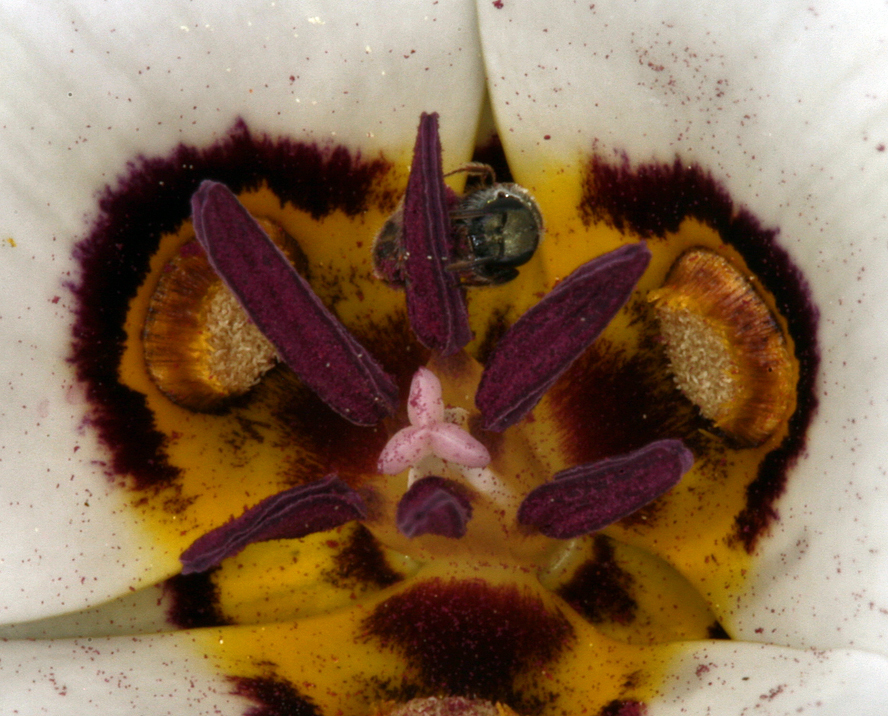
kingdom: Plantae
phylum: Tracheophyta
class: Liliopsida
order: Liliales
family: Liliaceae
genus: Calochortus
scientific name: Calochortus bruneaunis
